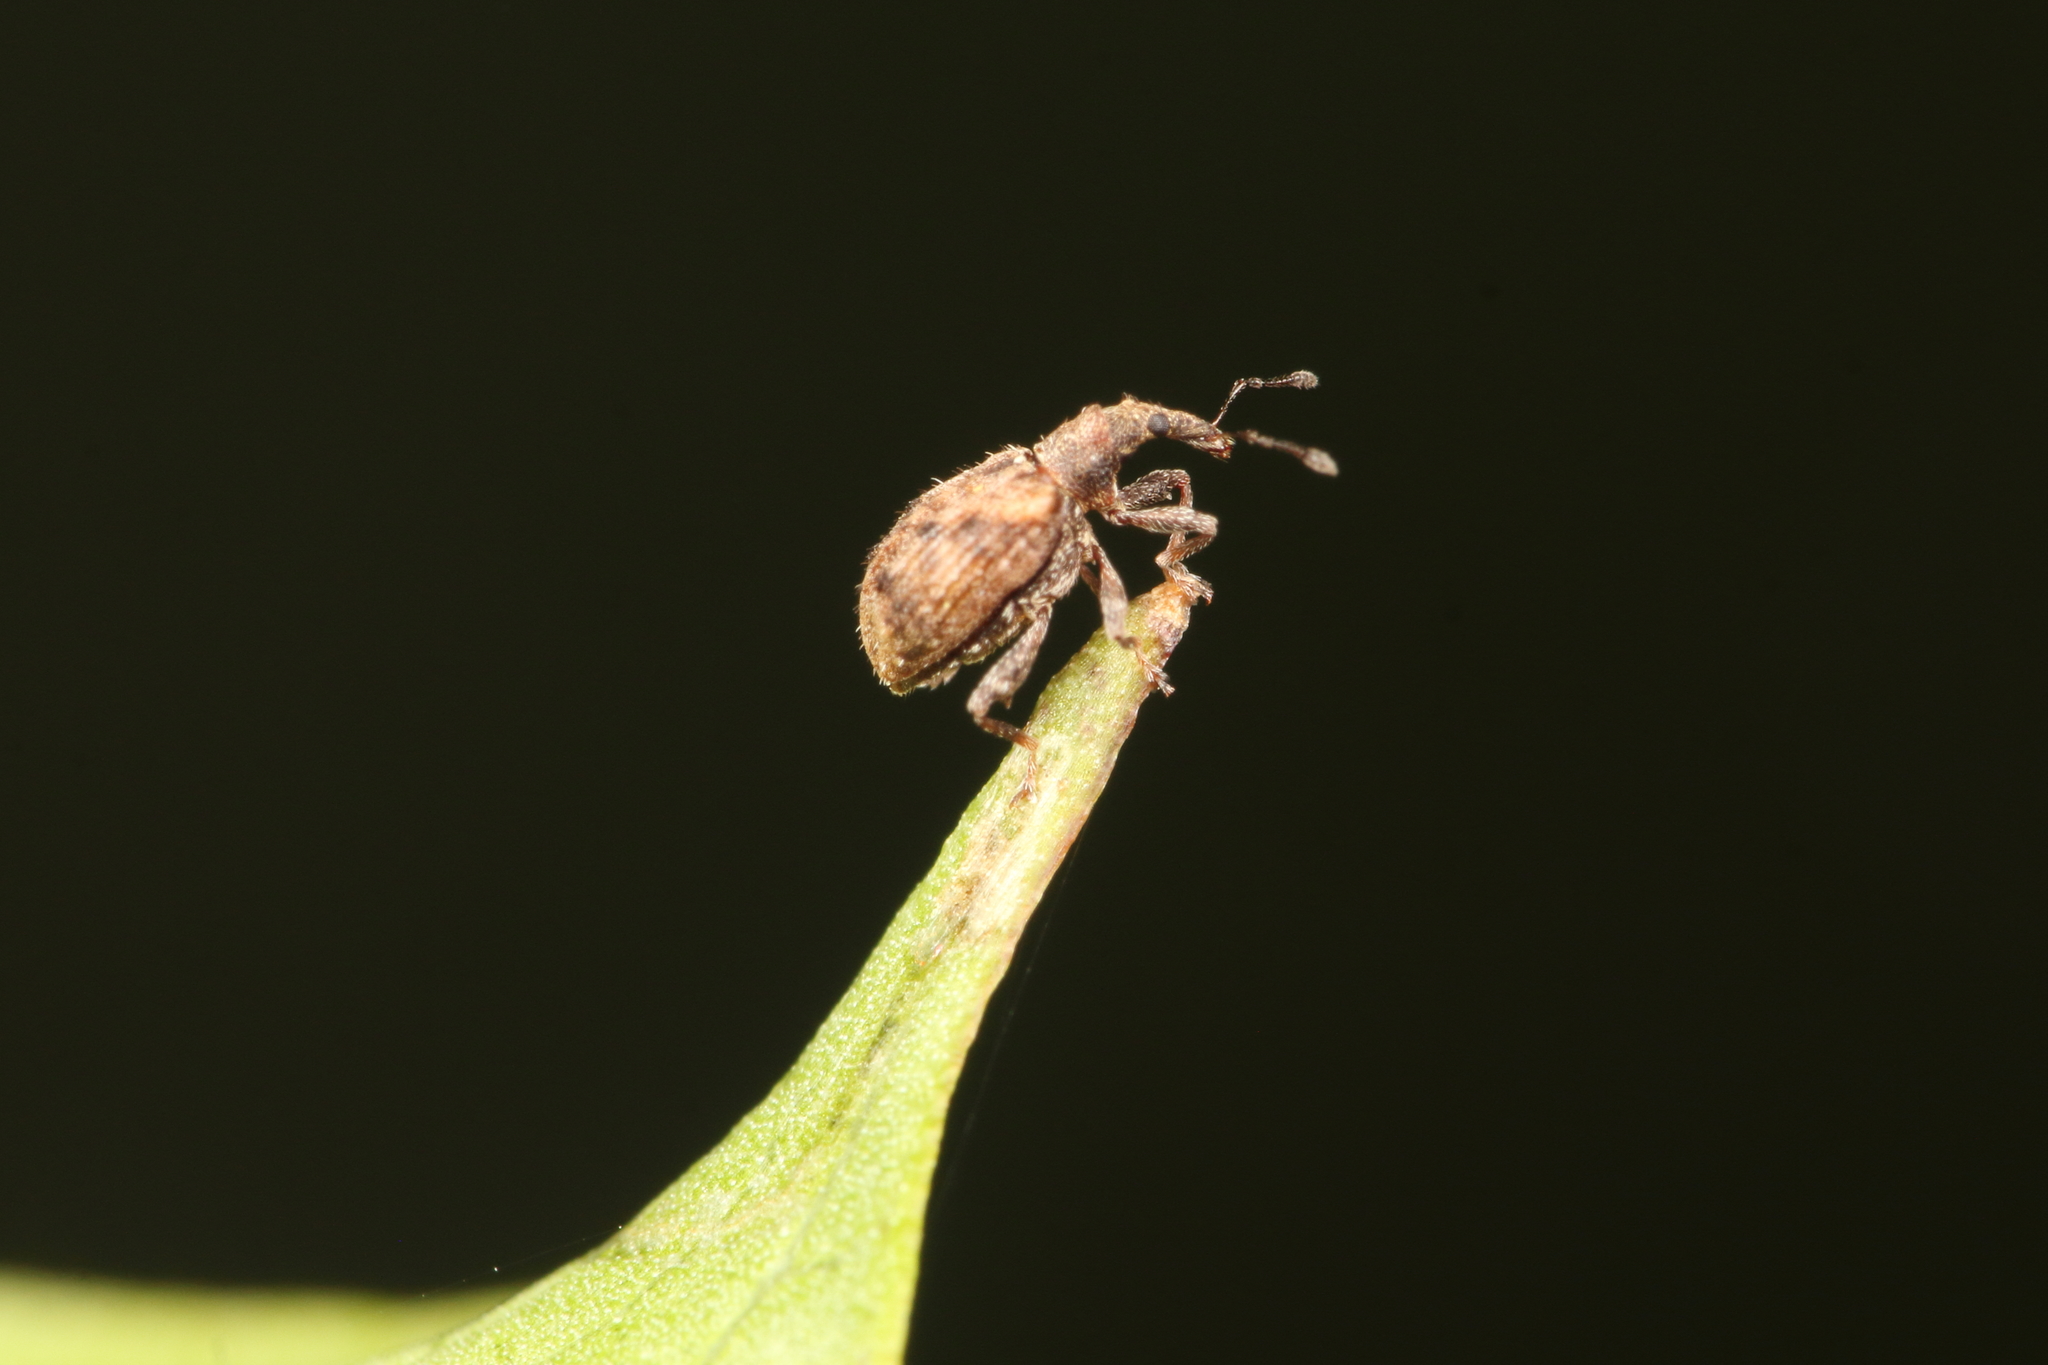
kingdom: Animalia
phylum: Arthropoda
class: Insecta
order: Coleoptera
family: Curculionidae
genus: Tysius
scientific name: Tysius bicornis
